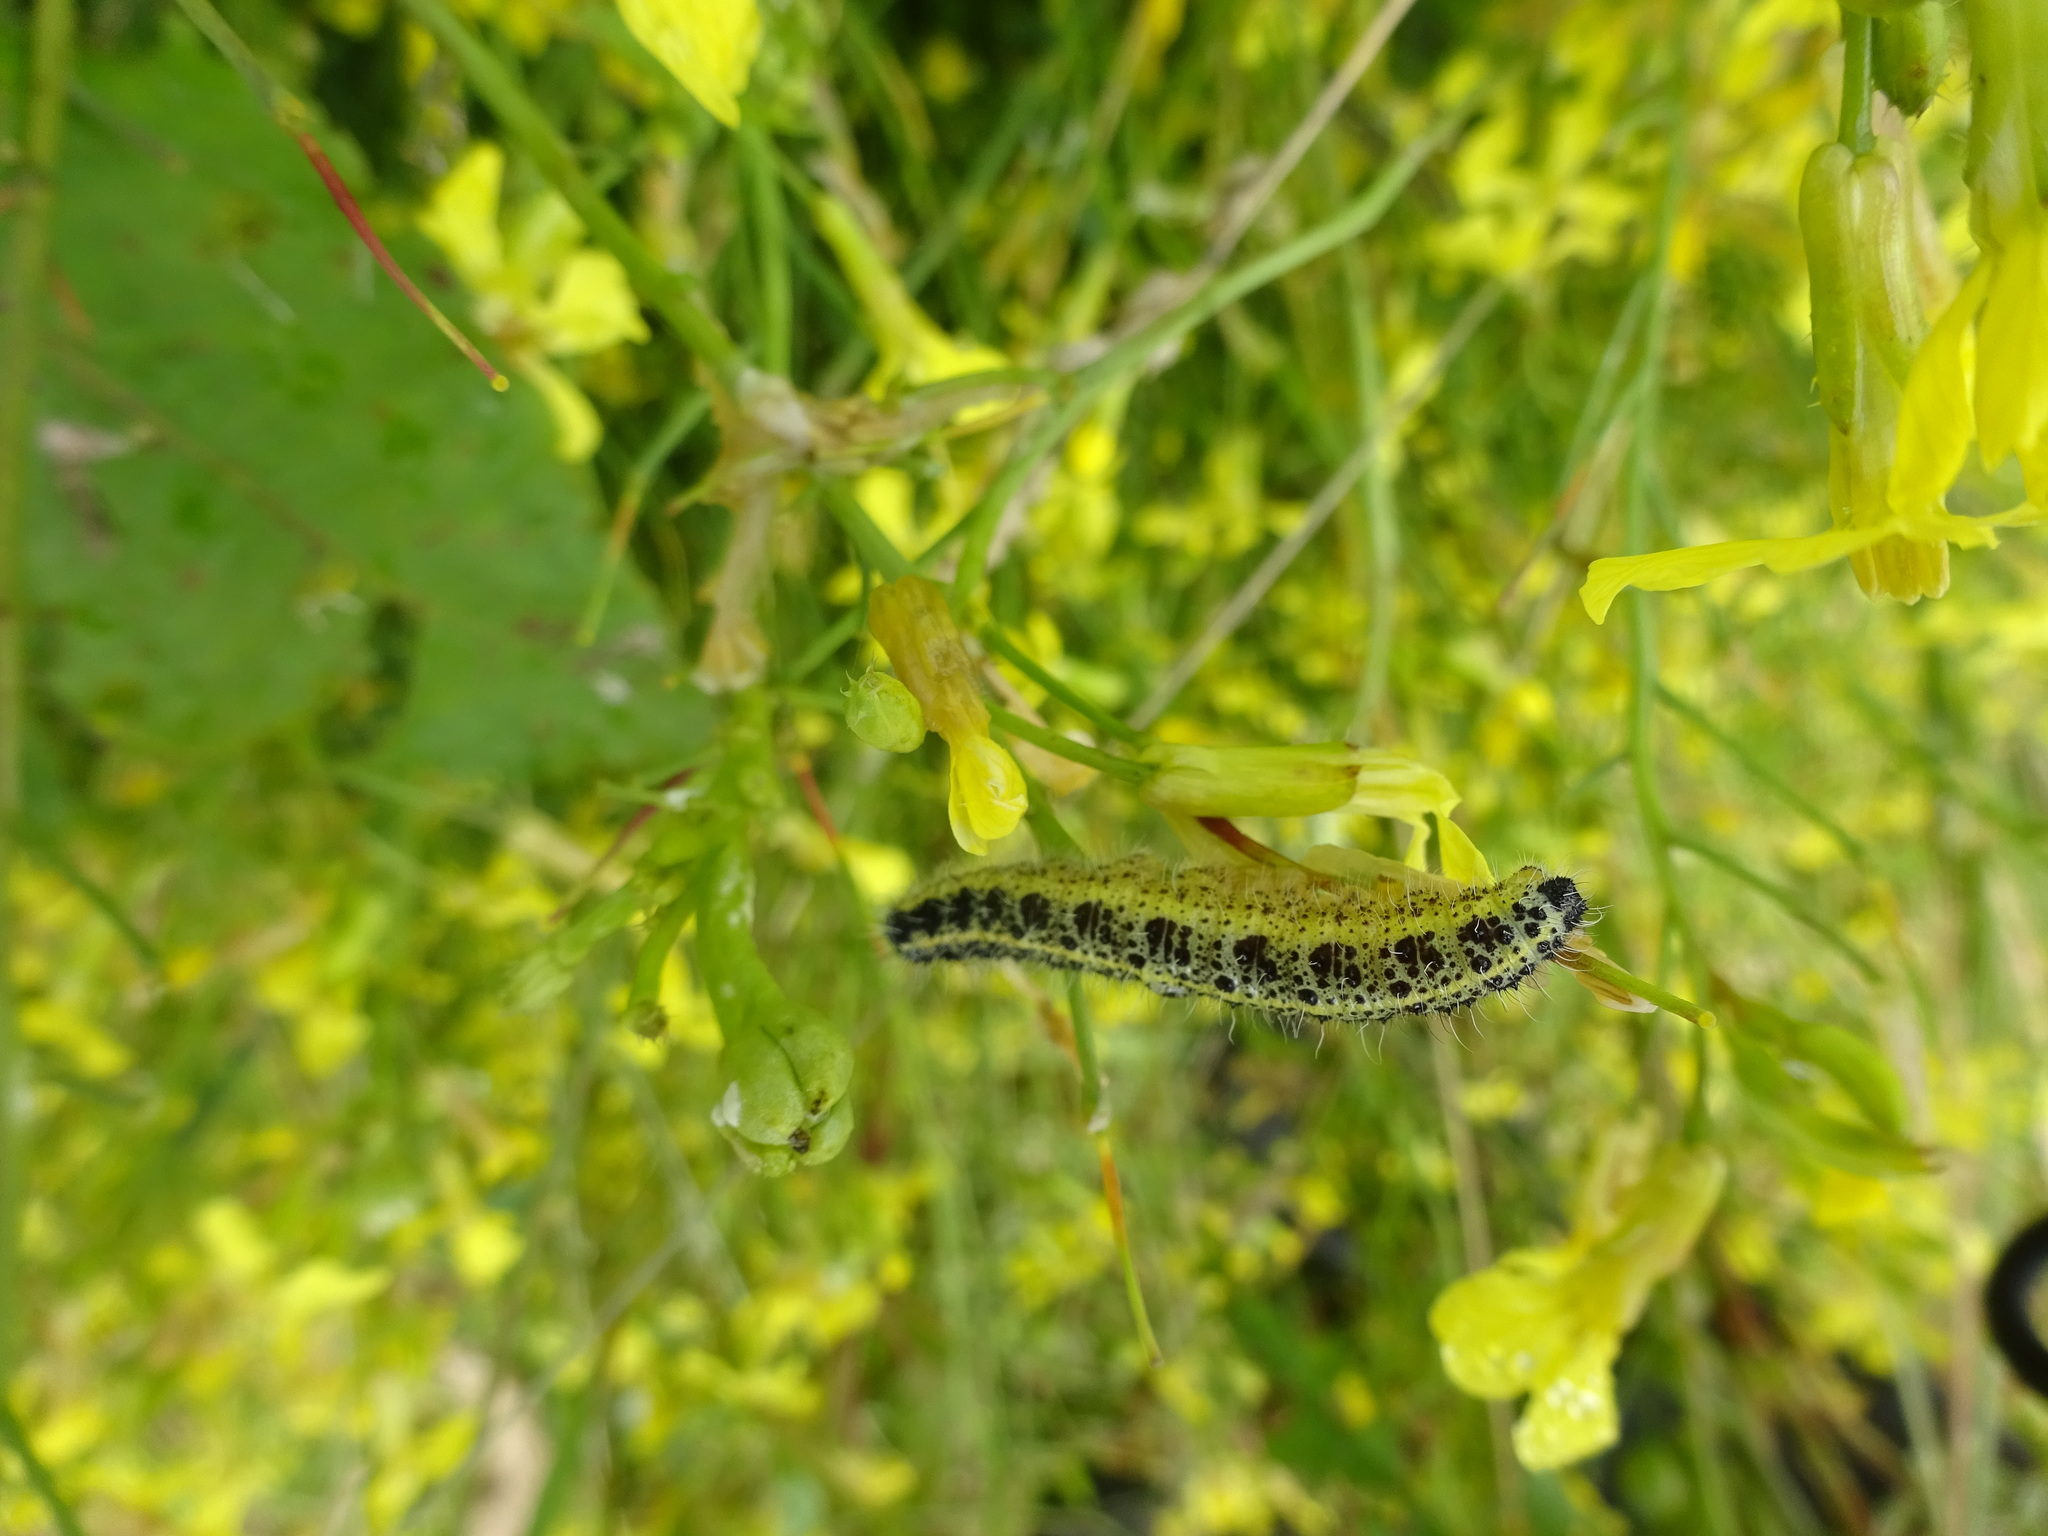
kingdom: Animalia
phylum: Arthropoda
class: Insecta
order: Lepidoptera
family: Pieridae
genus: Pieris
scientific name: Pieris brassicae
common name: Large white
